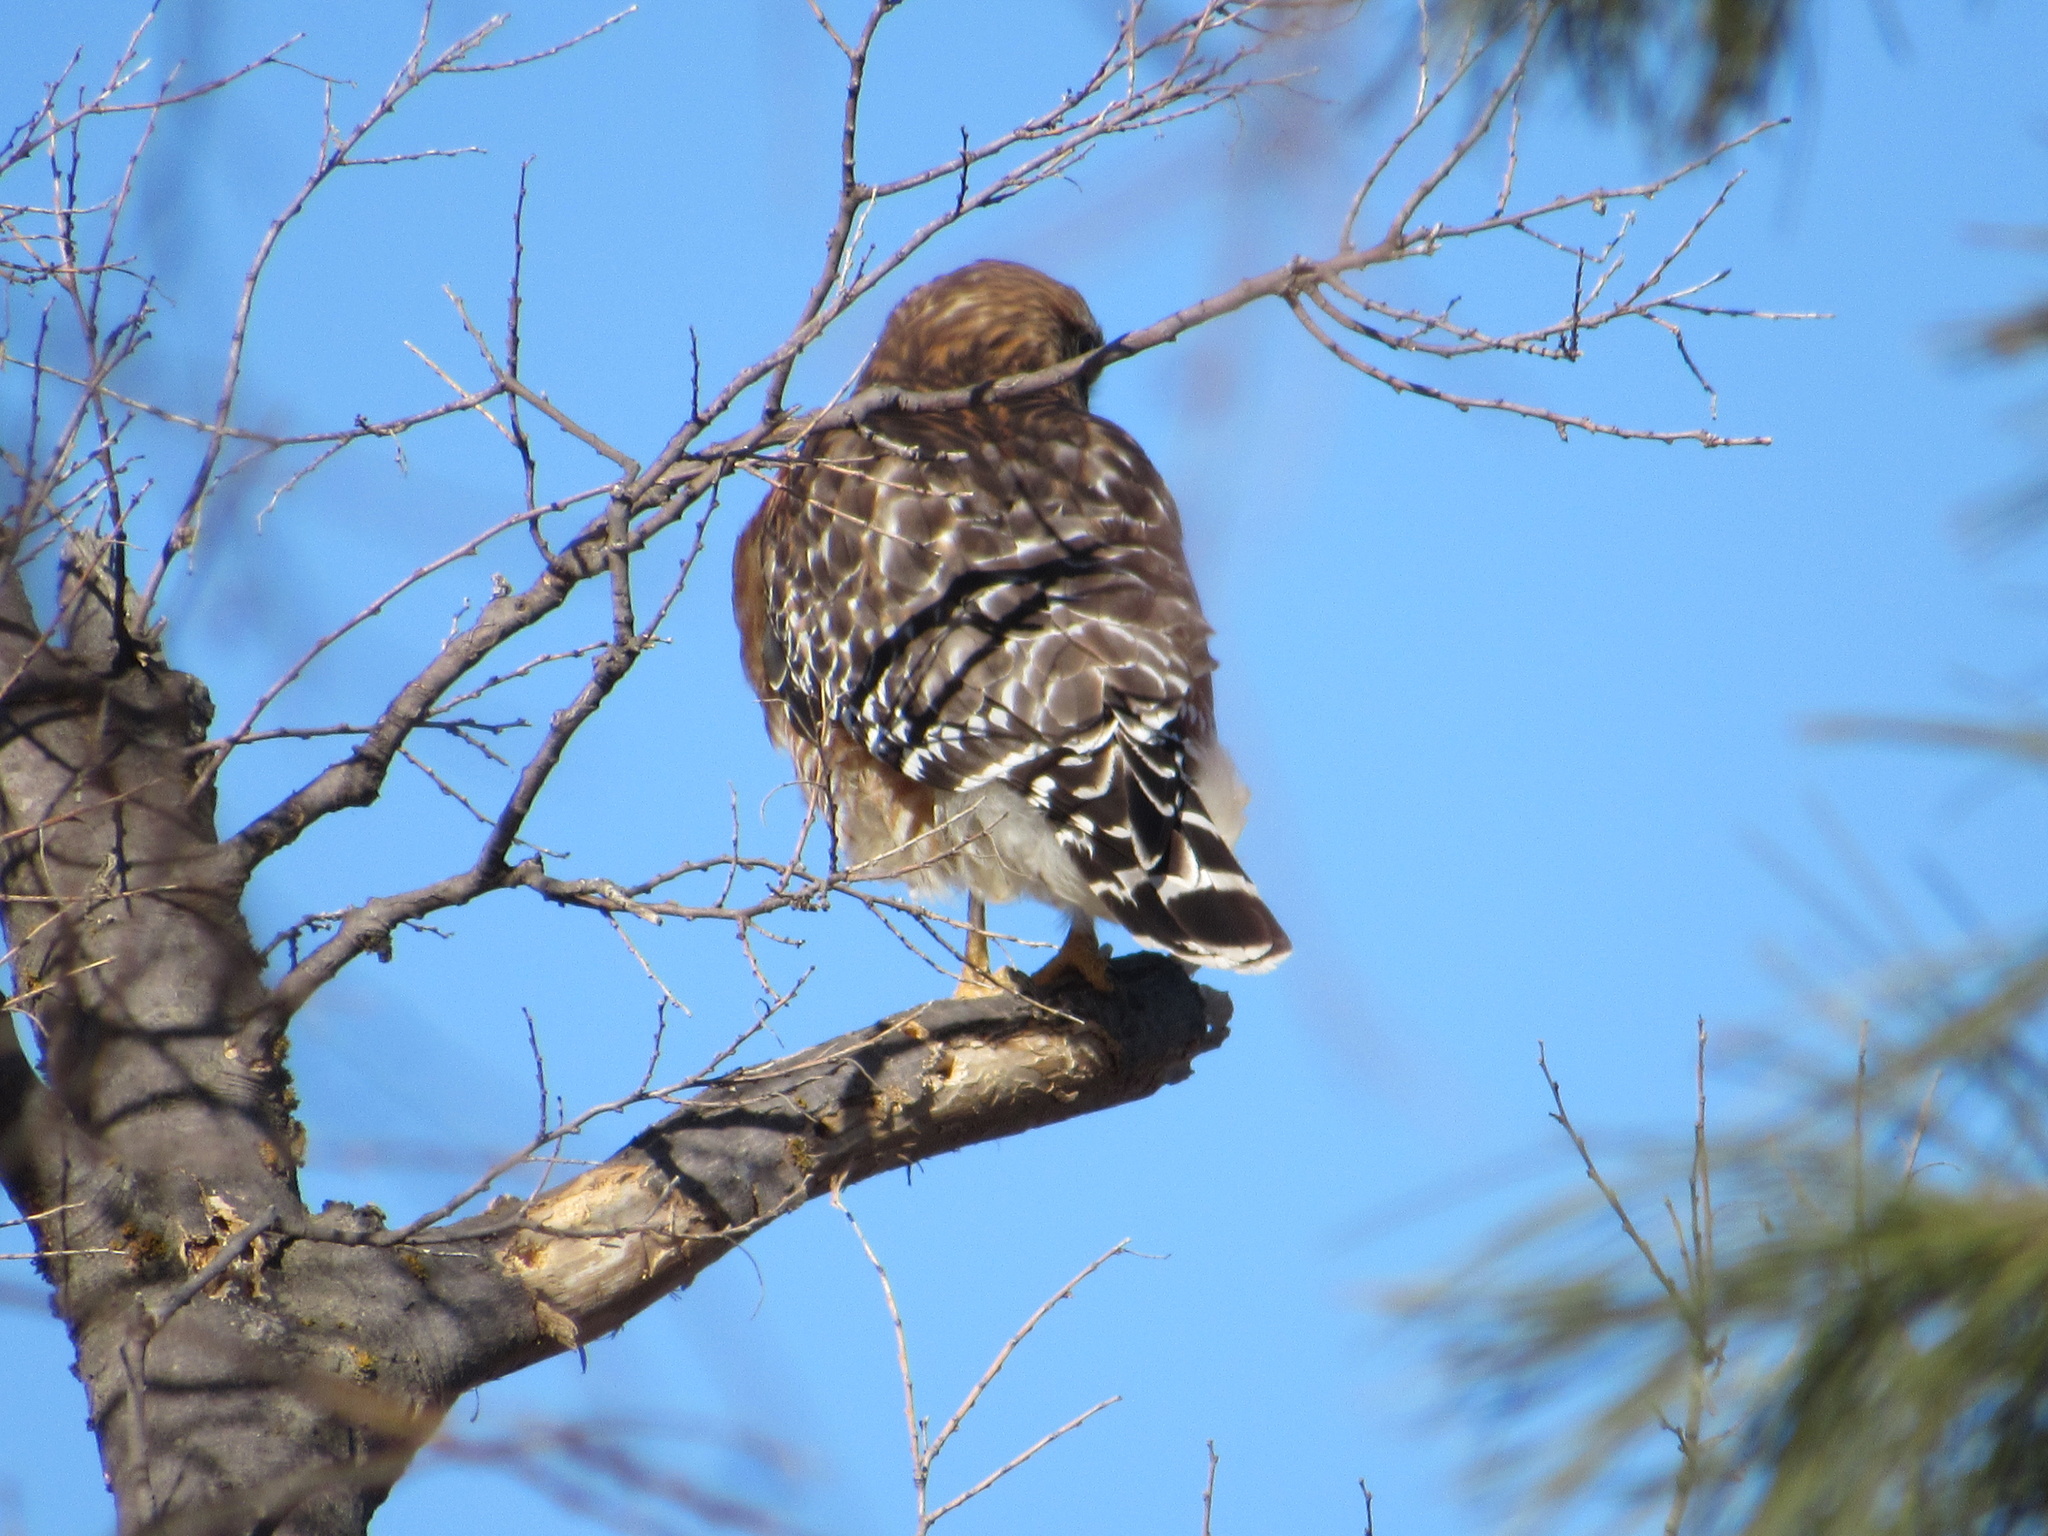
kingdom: Animalia
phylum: Chordata
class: Aves
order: Accipitriformes
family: Accipitridae
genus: Buteo
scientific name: Buteo lineatus
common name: Red-shouldered hawk
